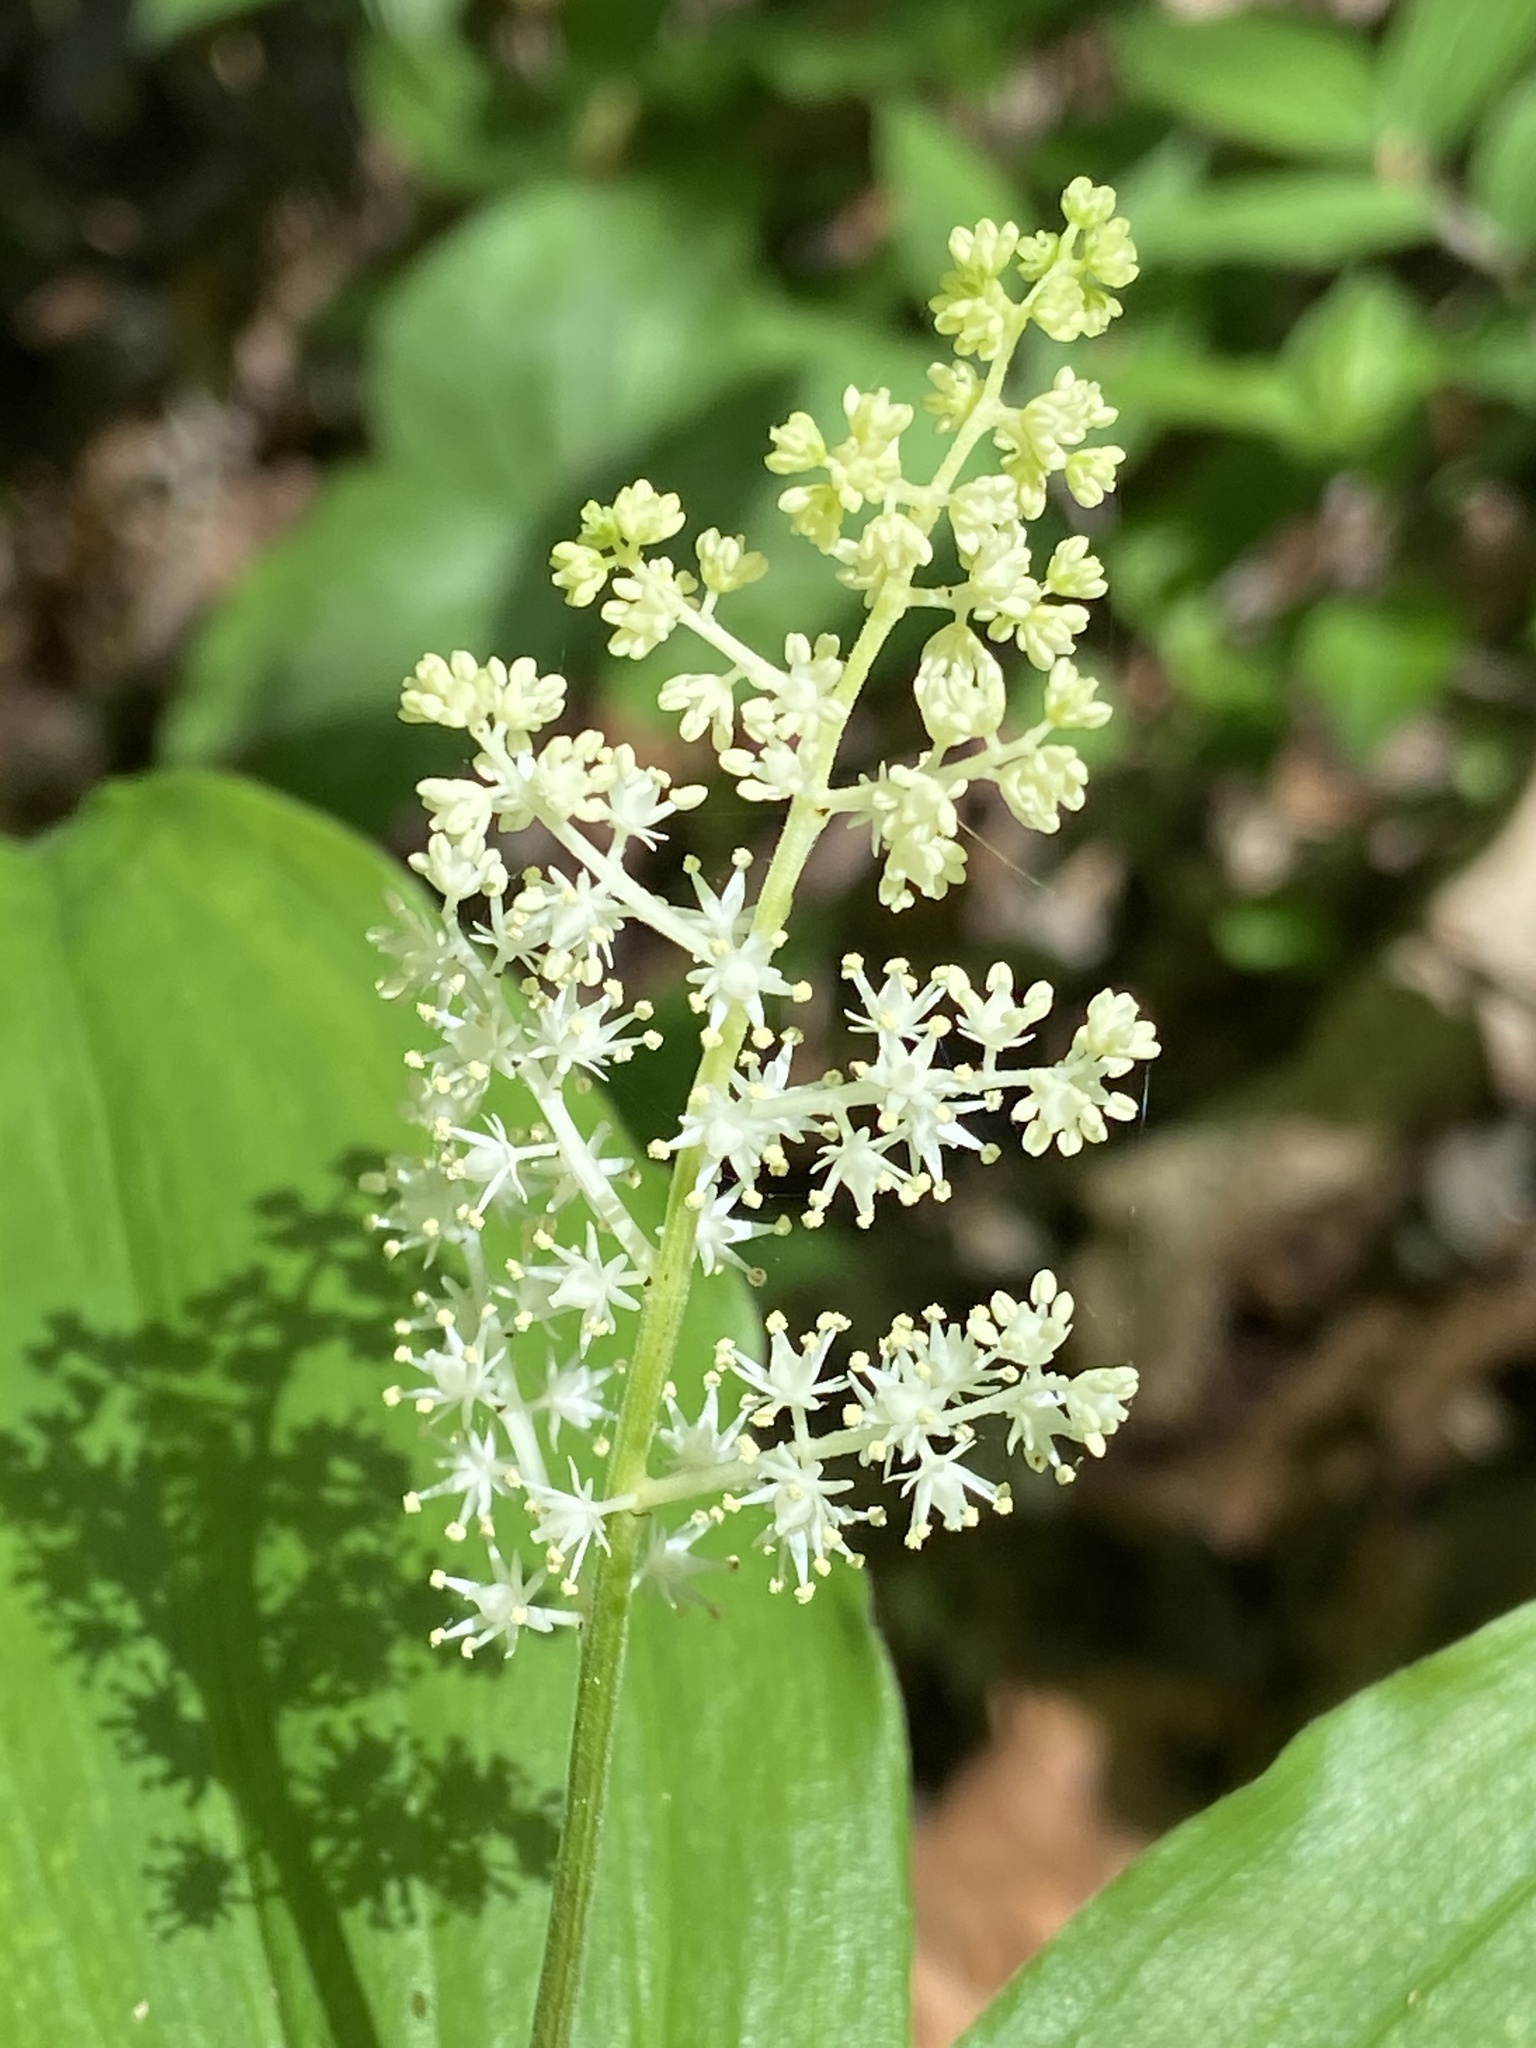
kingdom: Plantae
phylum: Tracheophyta
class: Liliopsida
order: Asparagales
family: Asparagaceae
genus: Maianthemum
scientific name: Maianthemum racemosum
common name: False spikenard
